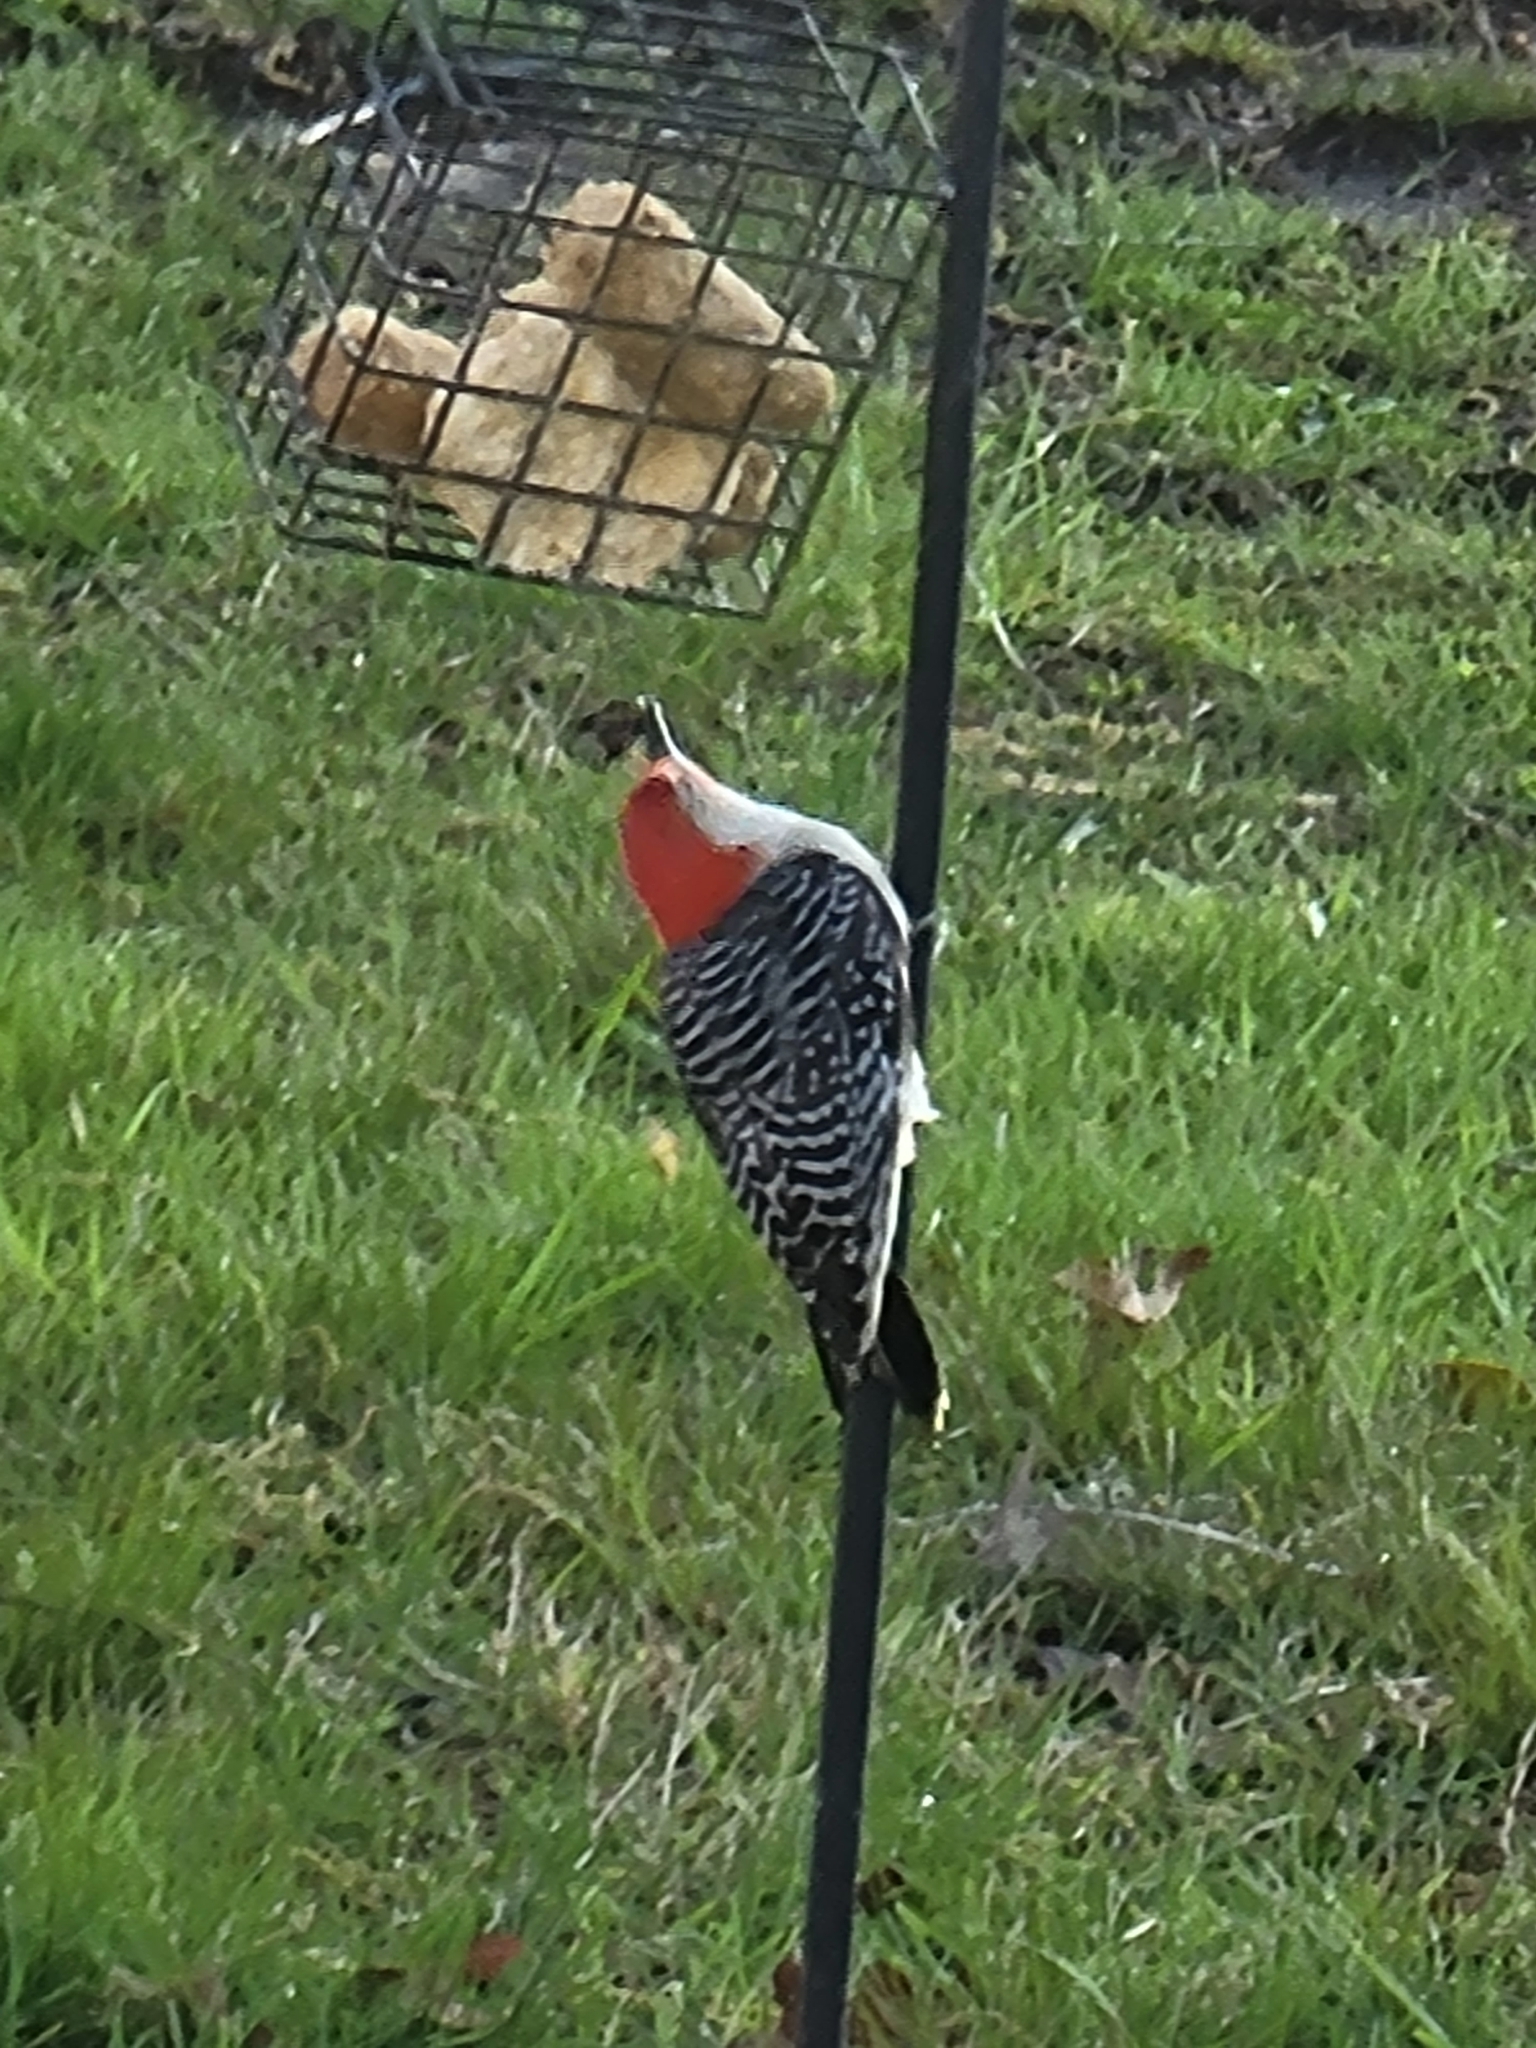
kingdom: Animalia
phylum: Chordata
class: Aves
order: Piciformes
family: Picidae
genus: Melanerpes
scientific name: Melanerpes carolinus
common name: Red-bellied woodpecker
